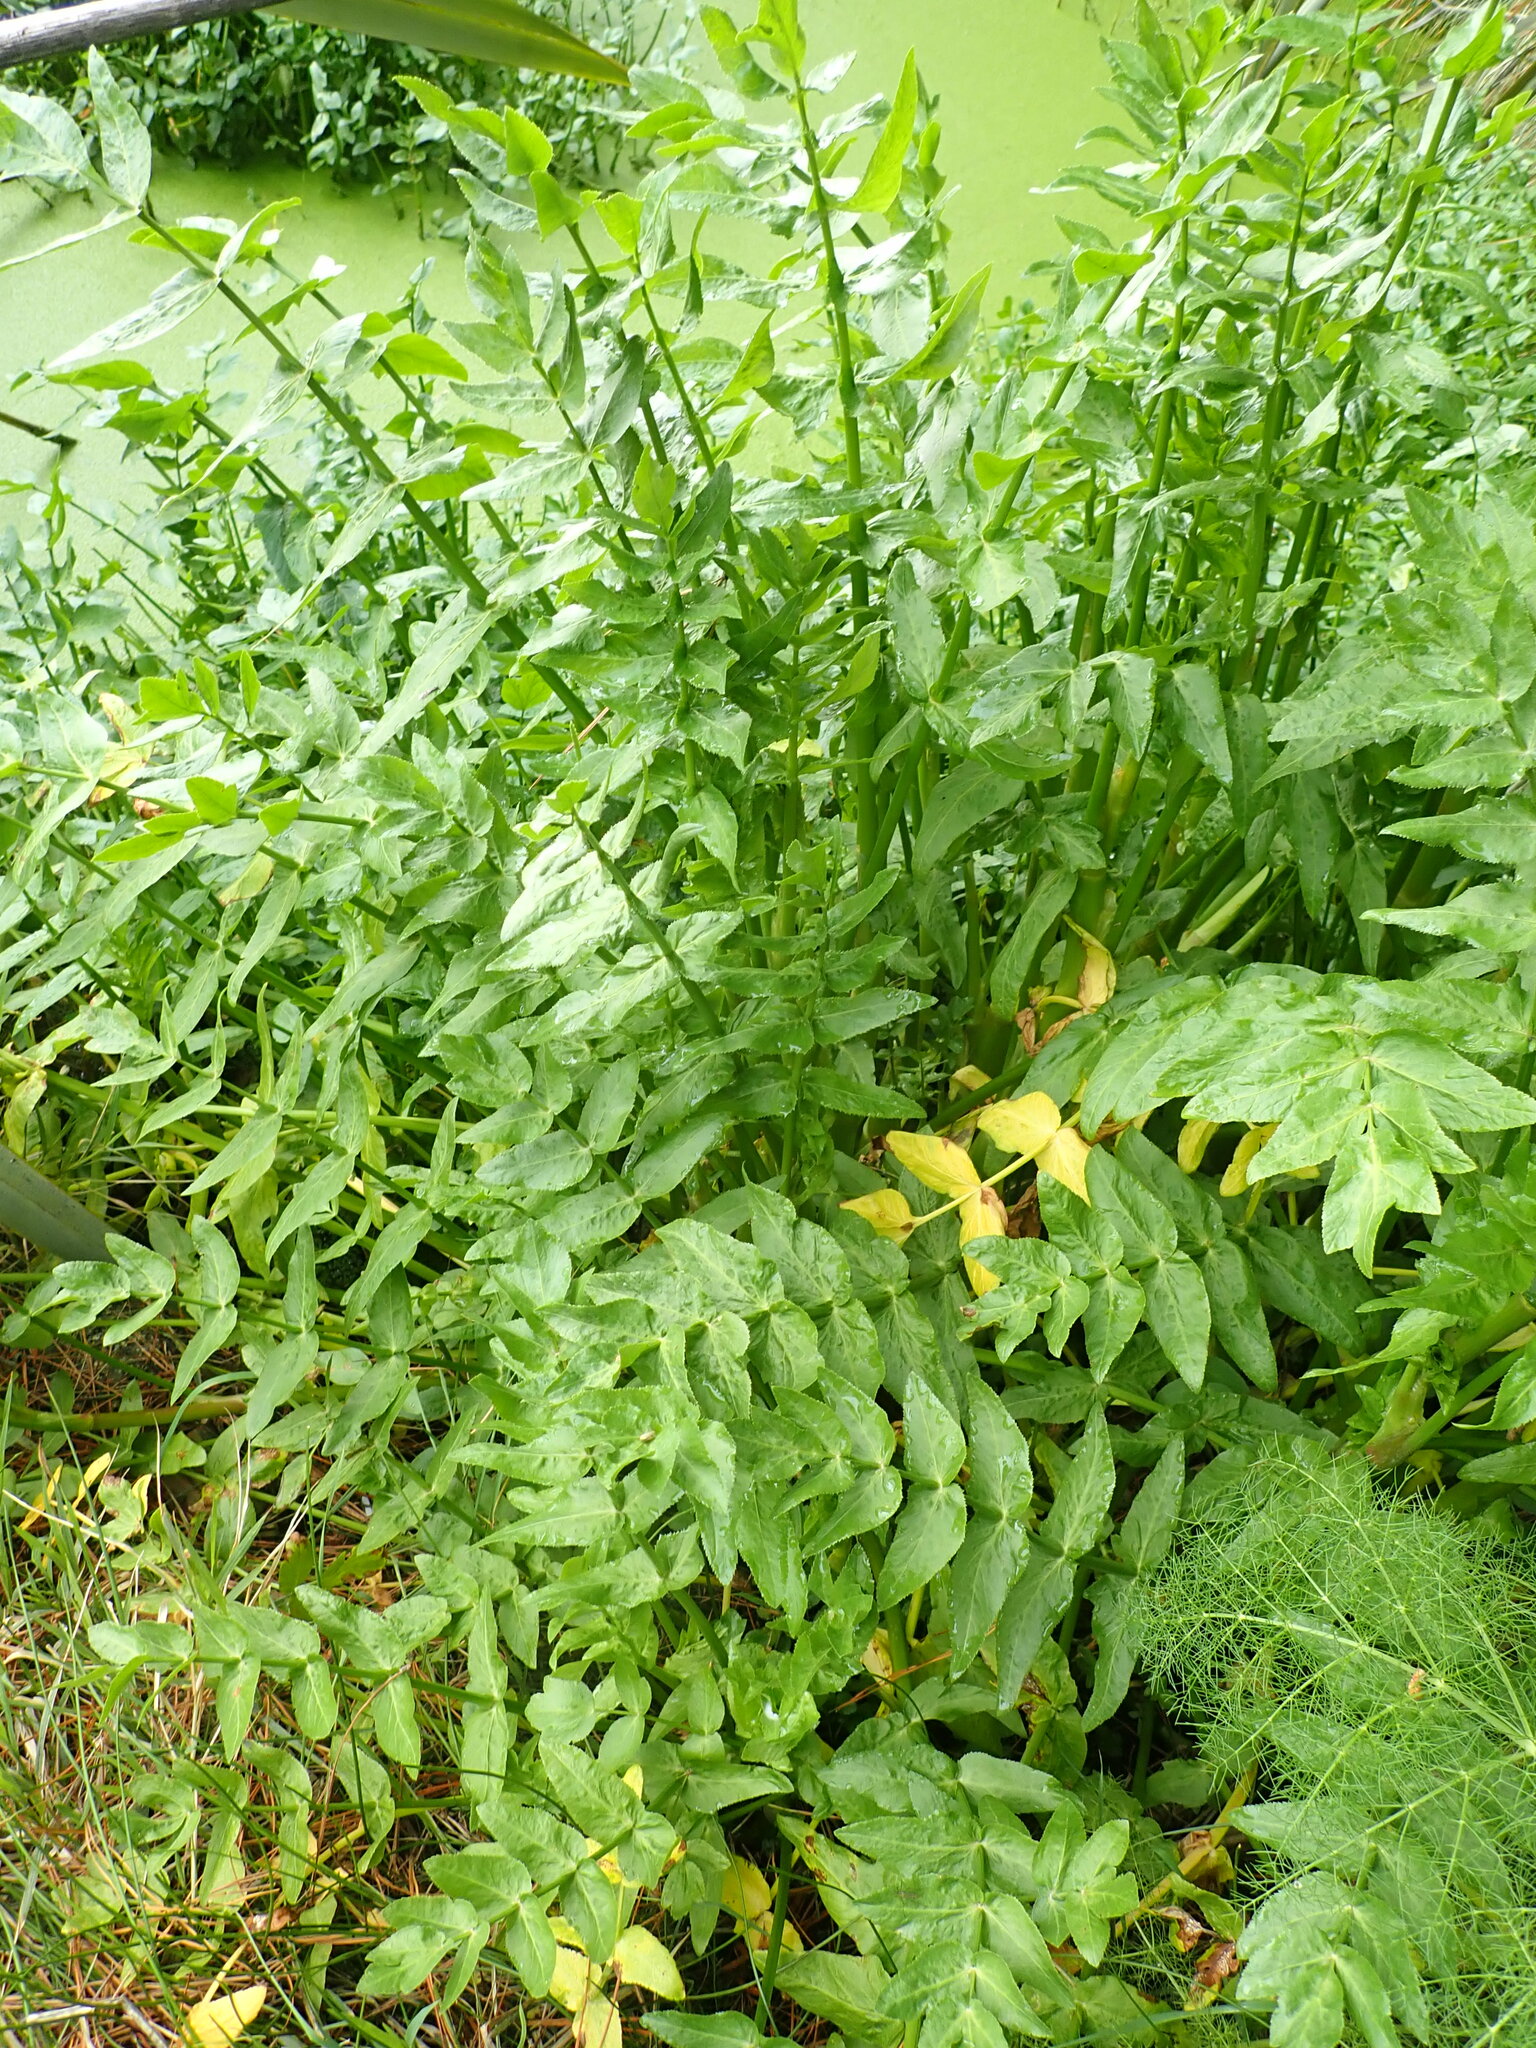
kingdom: Plantae
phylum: Tracheophyta
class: Magnoliopsida
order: Apiales
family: Apiaceae
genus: Helosciadium
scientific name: Helosciadium nodiflorum
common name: Fool's-watercress
